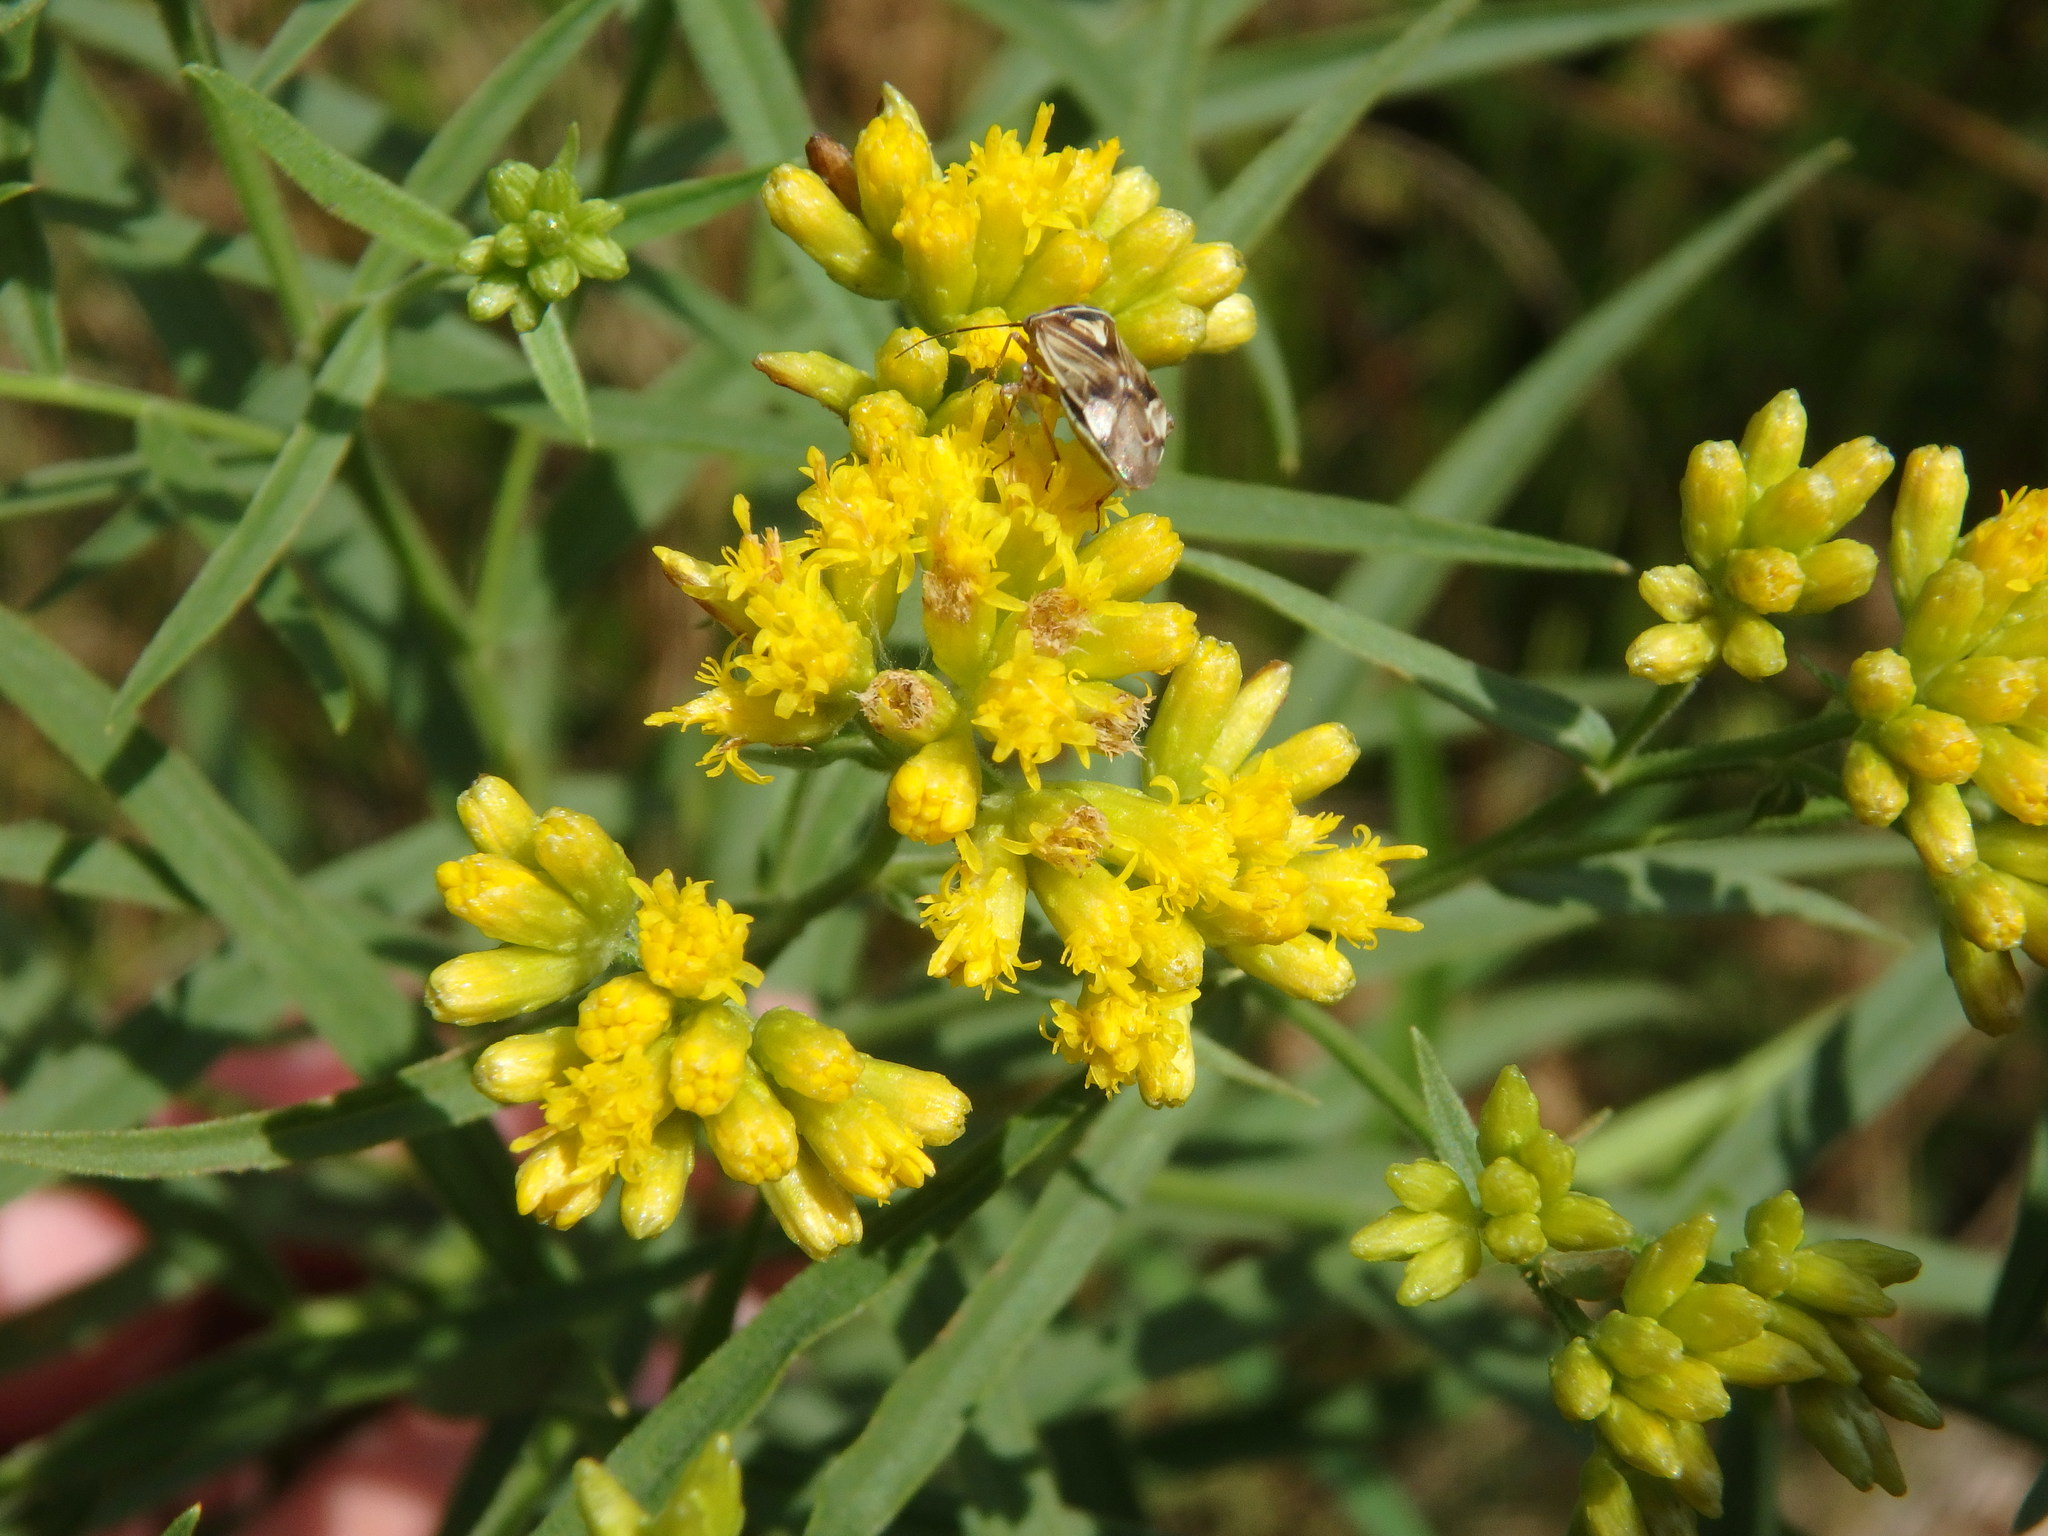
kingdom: Plantae
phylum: Tracheophyta
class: Magnoliopsida
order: Asterales
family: Asteraceae
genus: Euthamia
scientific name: Euthamia graminifolia
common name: Common goldentop
